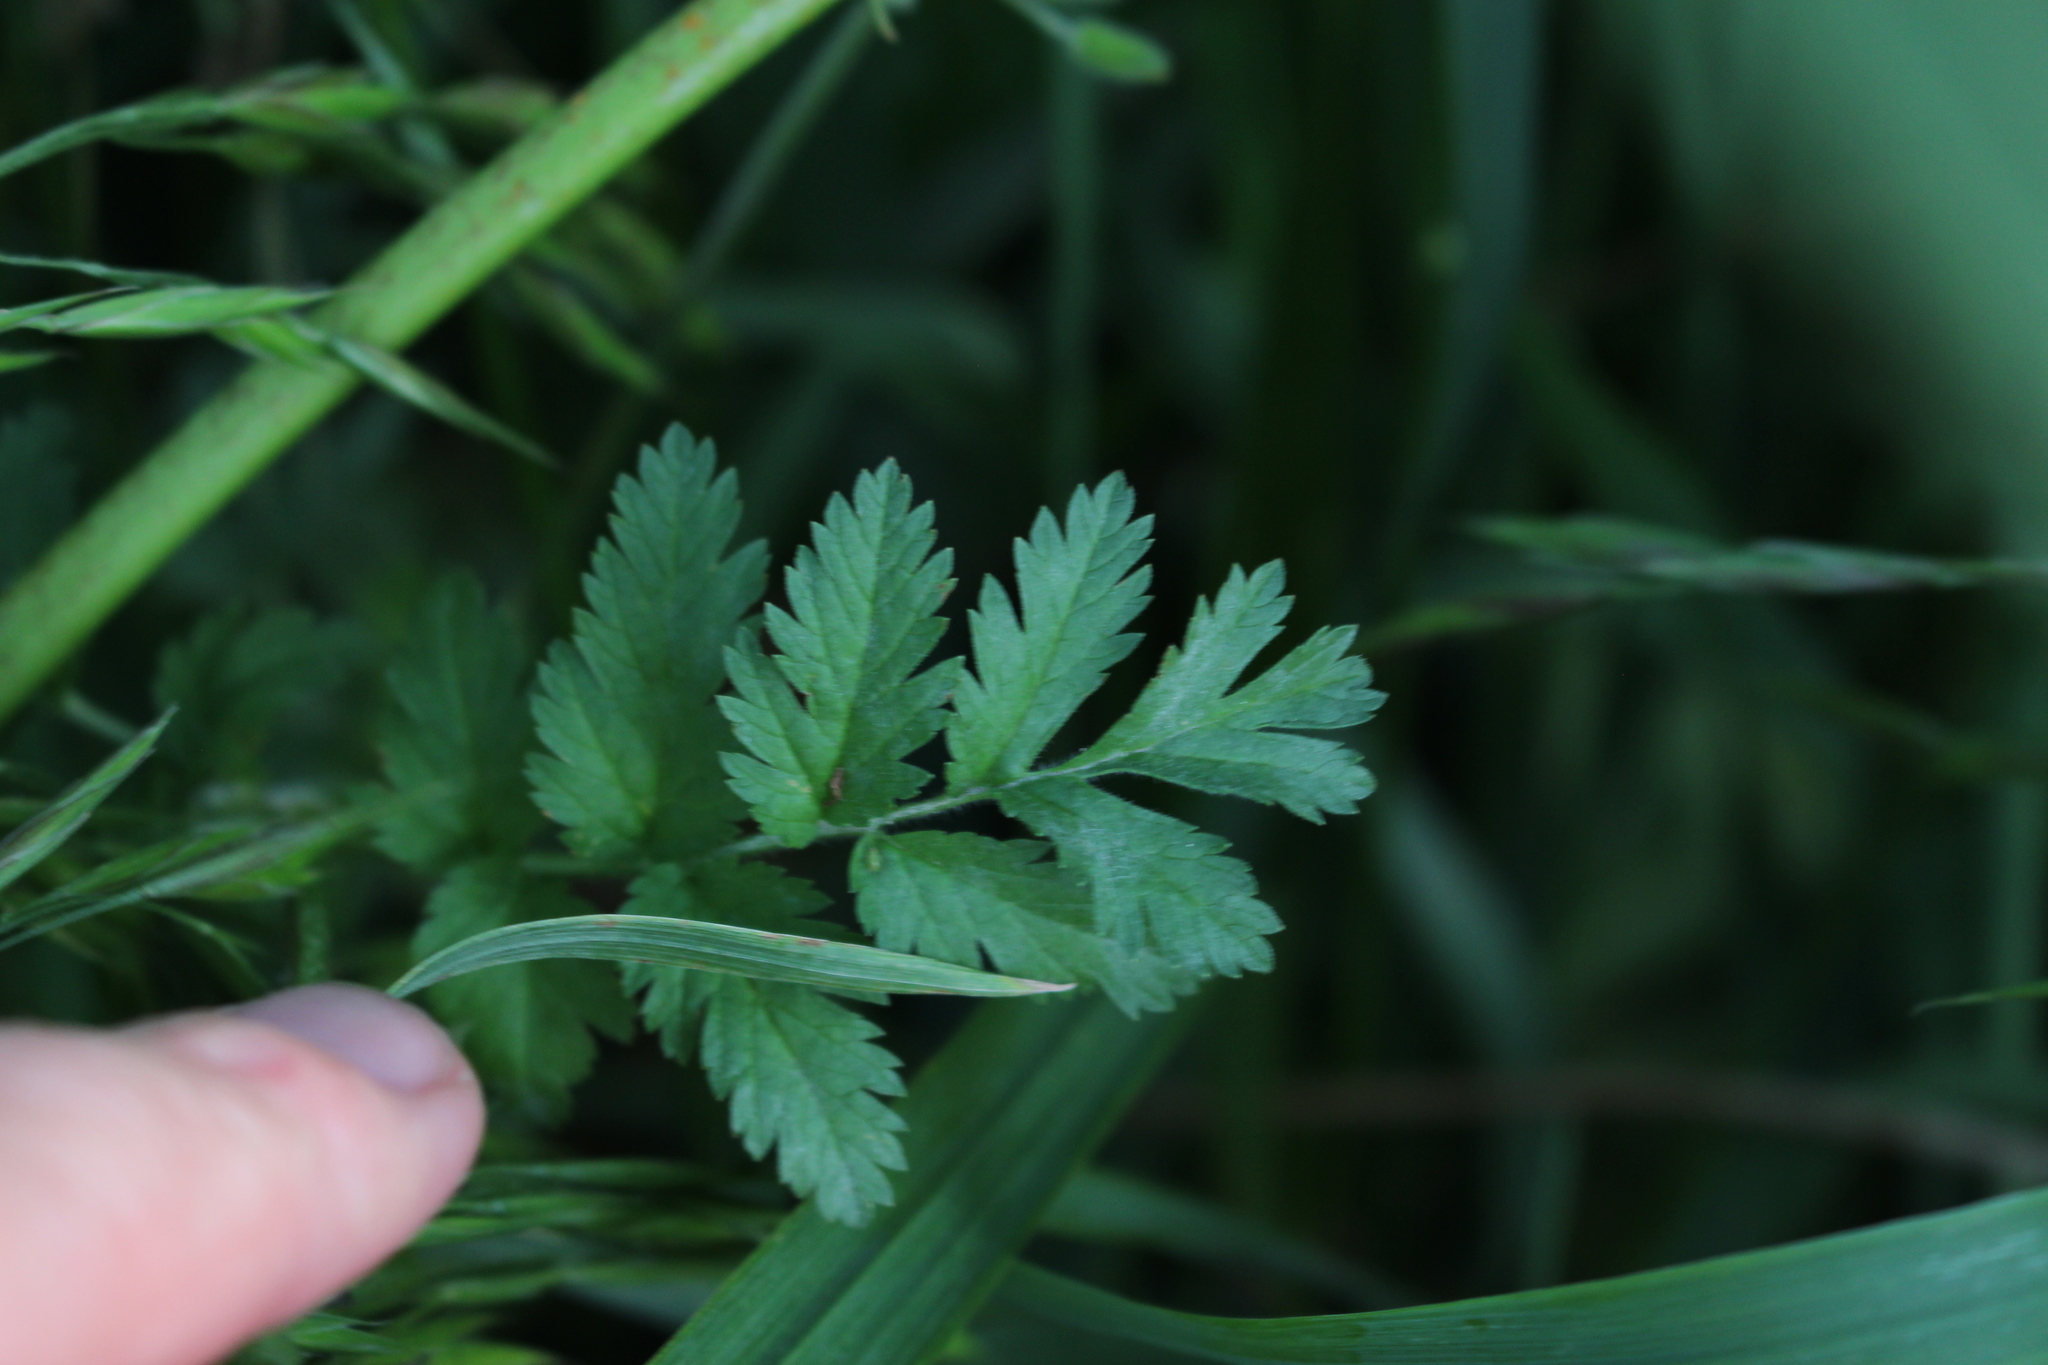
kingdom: Plantae
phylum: Tracheophyta
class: Magnoliopsida
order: Geraniales
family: Geraniaceae
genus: Erodium
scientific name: Erodium cicutarium
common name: Common stork's-bill
